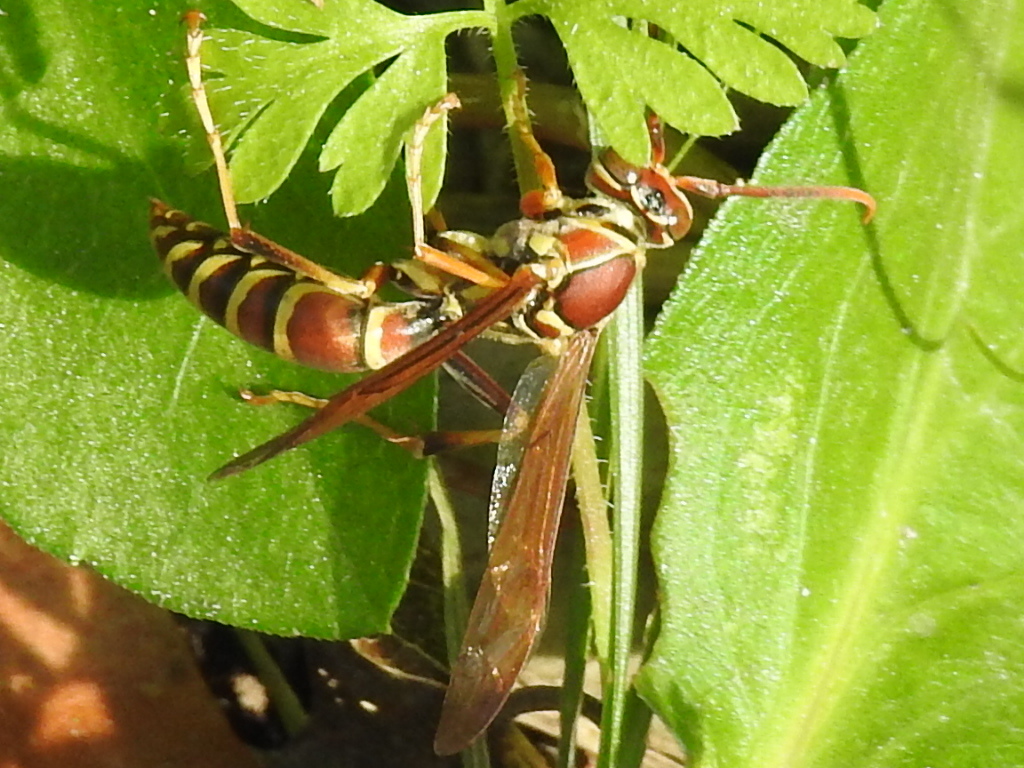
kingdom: Animalia
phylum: Arthropoda
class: Insecta
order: Hymenoptera
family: Eumenidae
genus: Polistes
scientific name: Polistes exclamans
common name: Paper wasp
